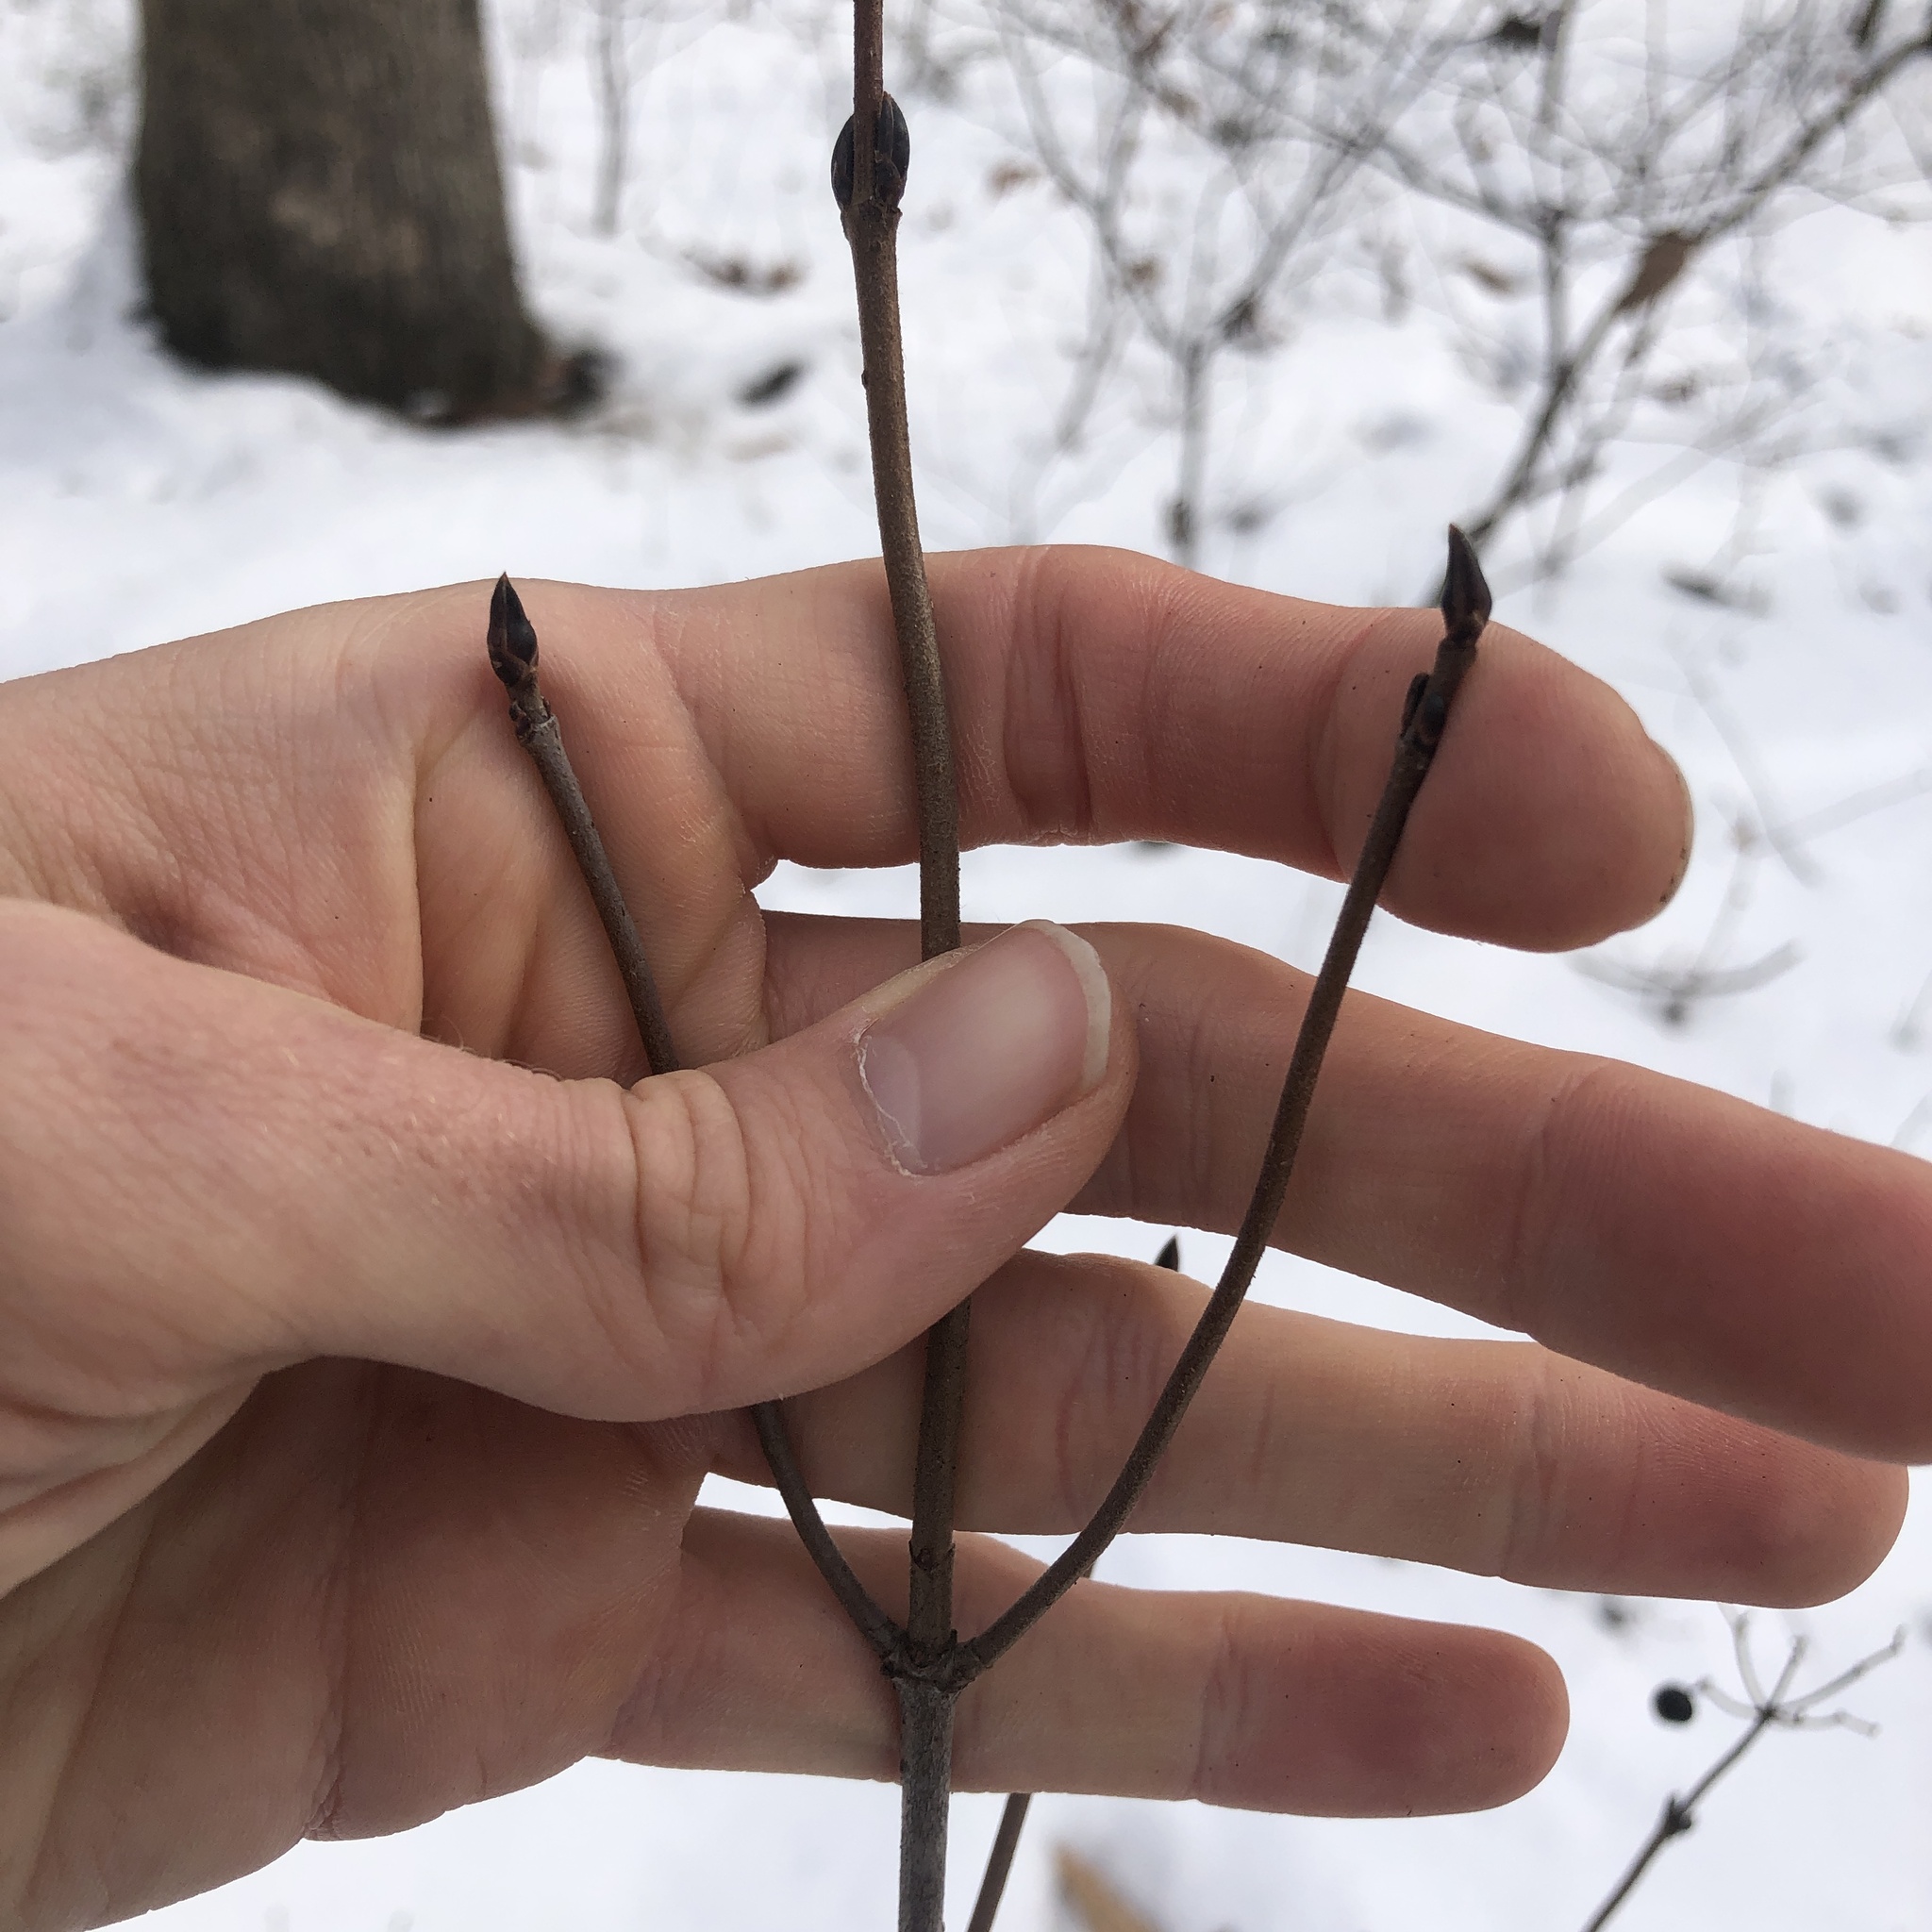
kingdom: Plantae
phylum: Tracheophyta
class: Magnoliopsida
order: Dipsacales
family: Viburnaceae
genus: Viburnum
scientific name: Viburnum acerifolium
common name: Dockmackie
